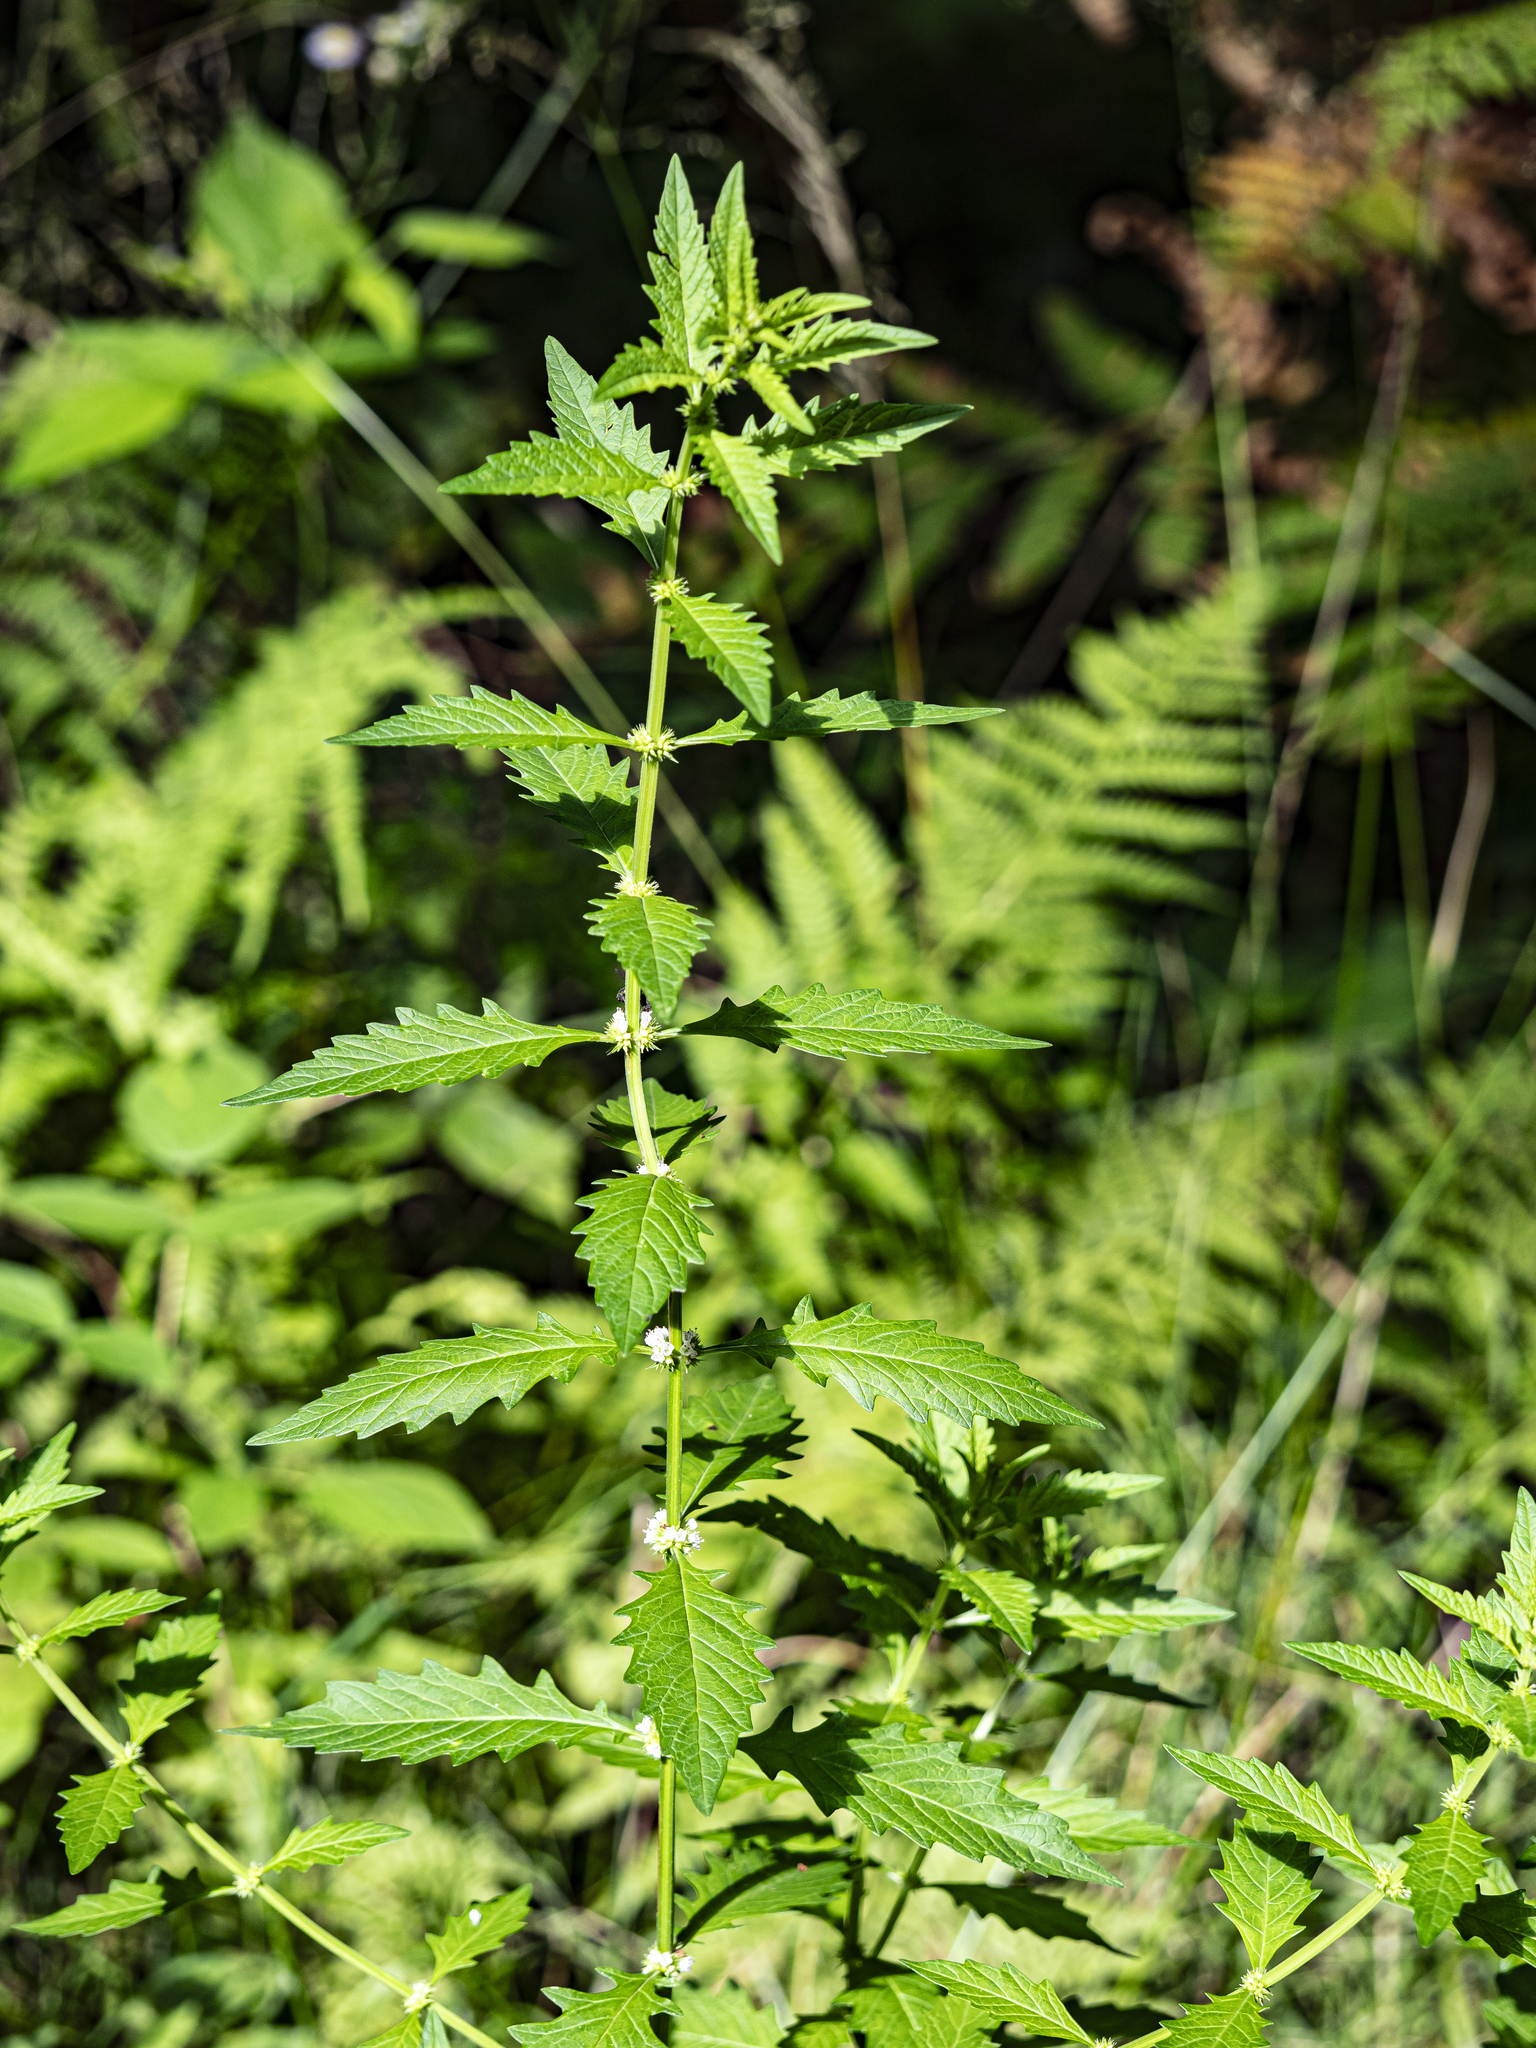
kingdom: Plantae
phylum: Tracheophyta
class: Magnoliopsida
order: Lamiales
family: Lamiaceae
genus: Lycopus
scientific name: Lycopus europaeus
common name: European bugleweed
